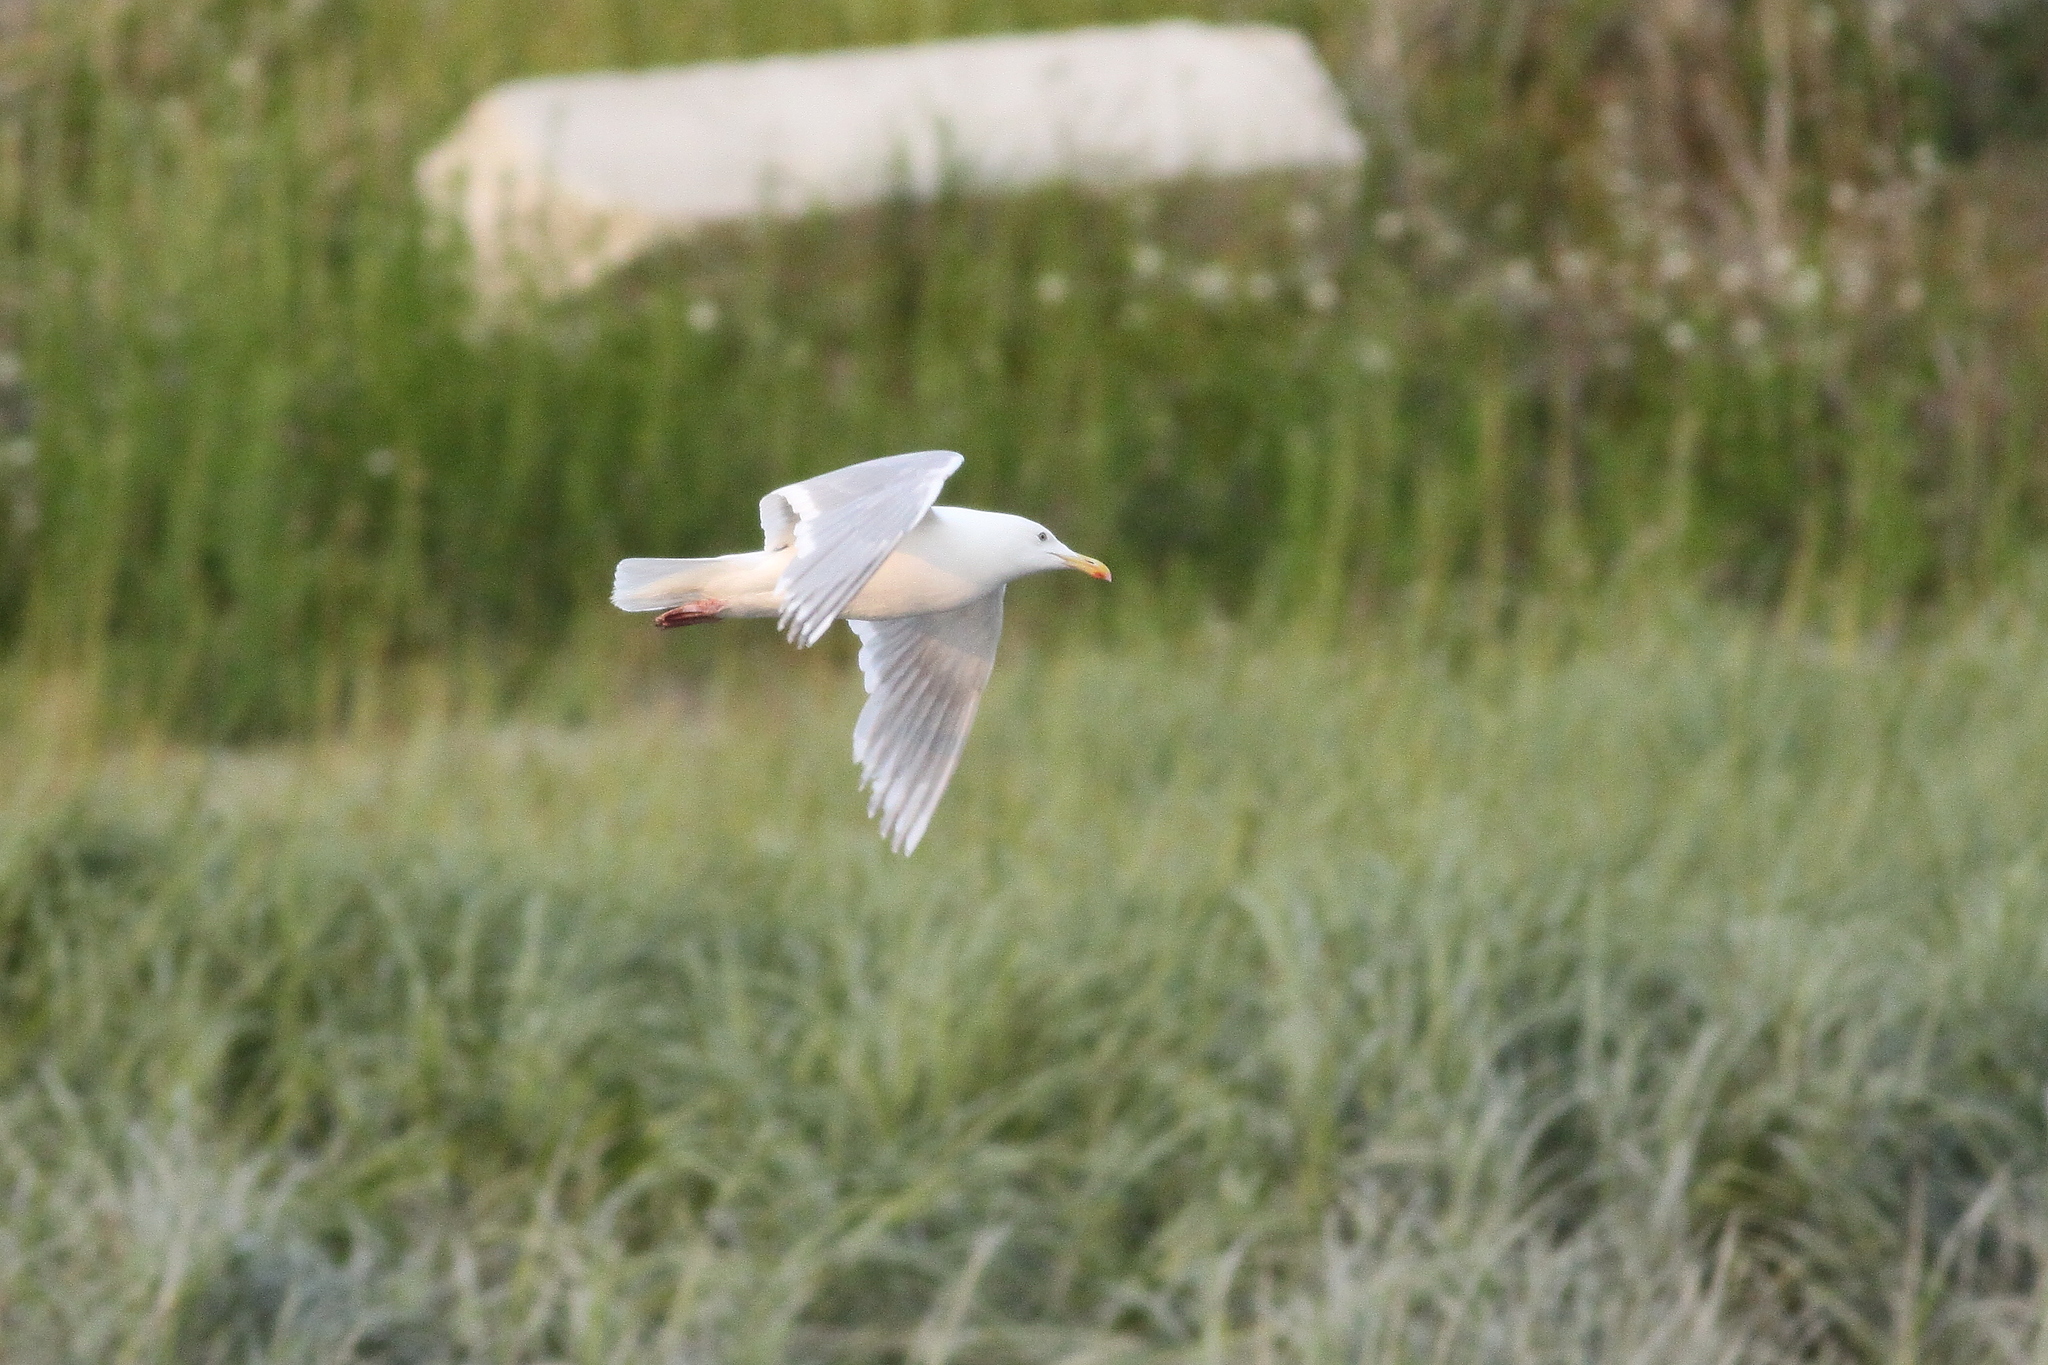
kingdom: Animalia
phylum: Chordata
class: Aves
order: Charadriiformes
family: Laridae
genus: Larus
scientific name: Larus glaucescens
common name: Glaucous-winged gull
